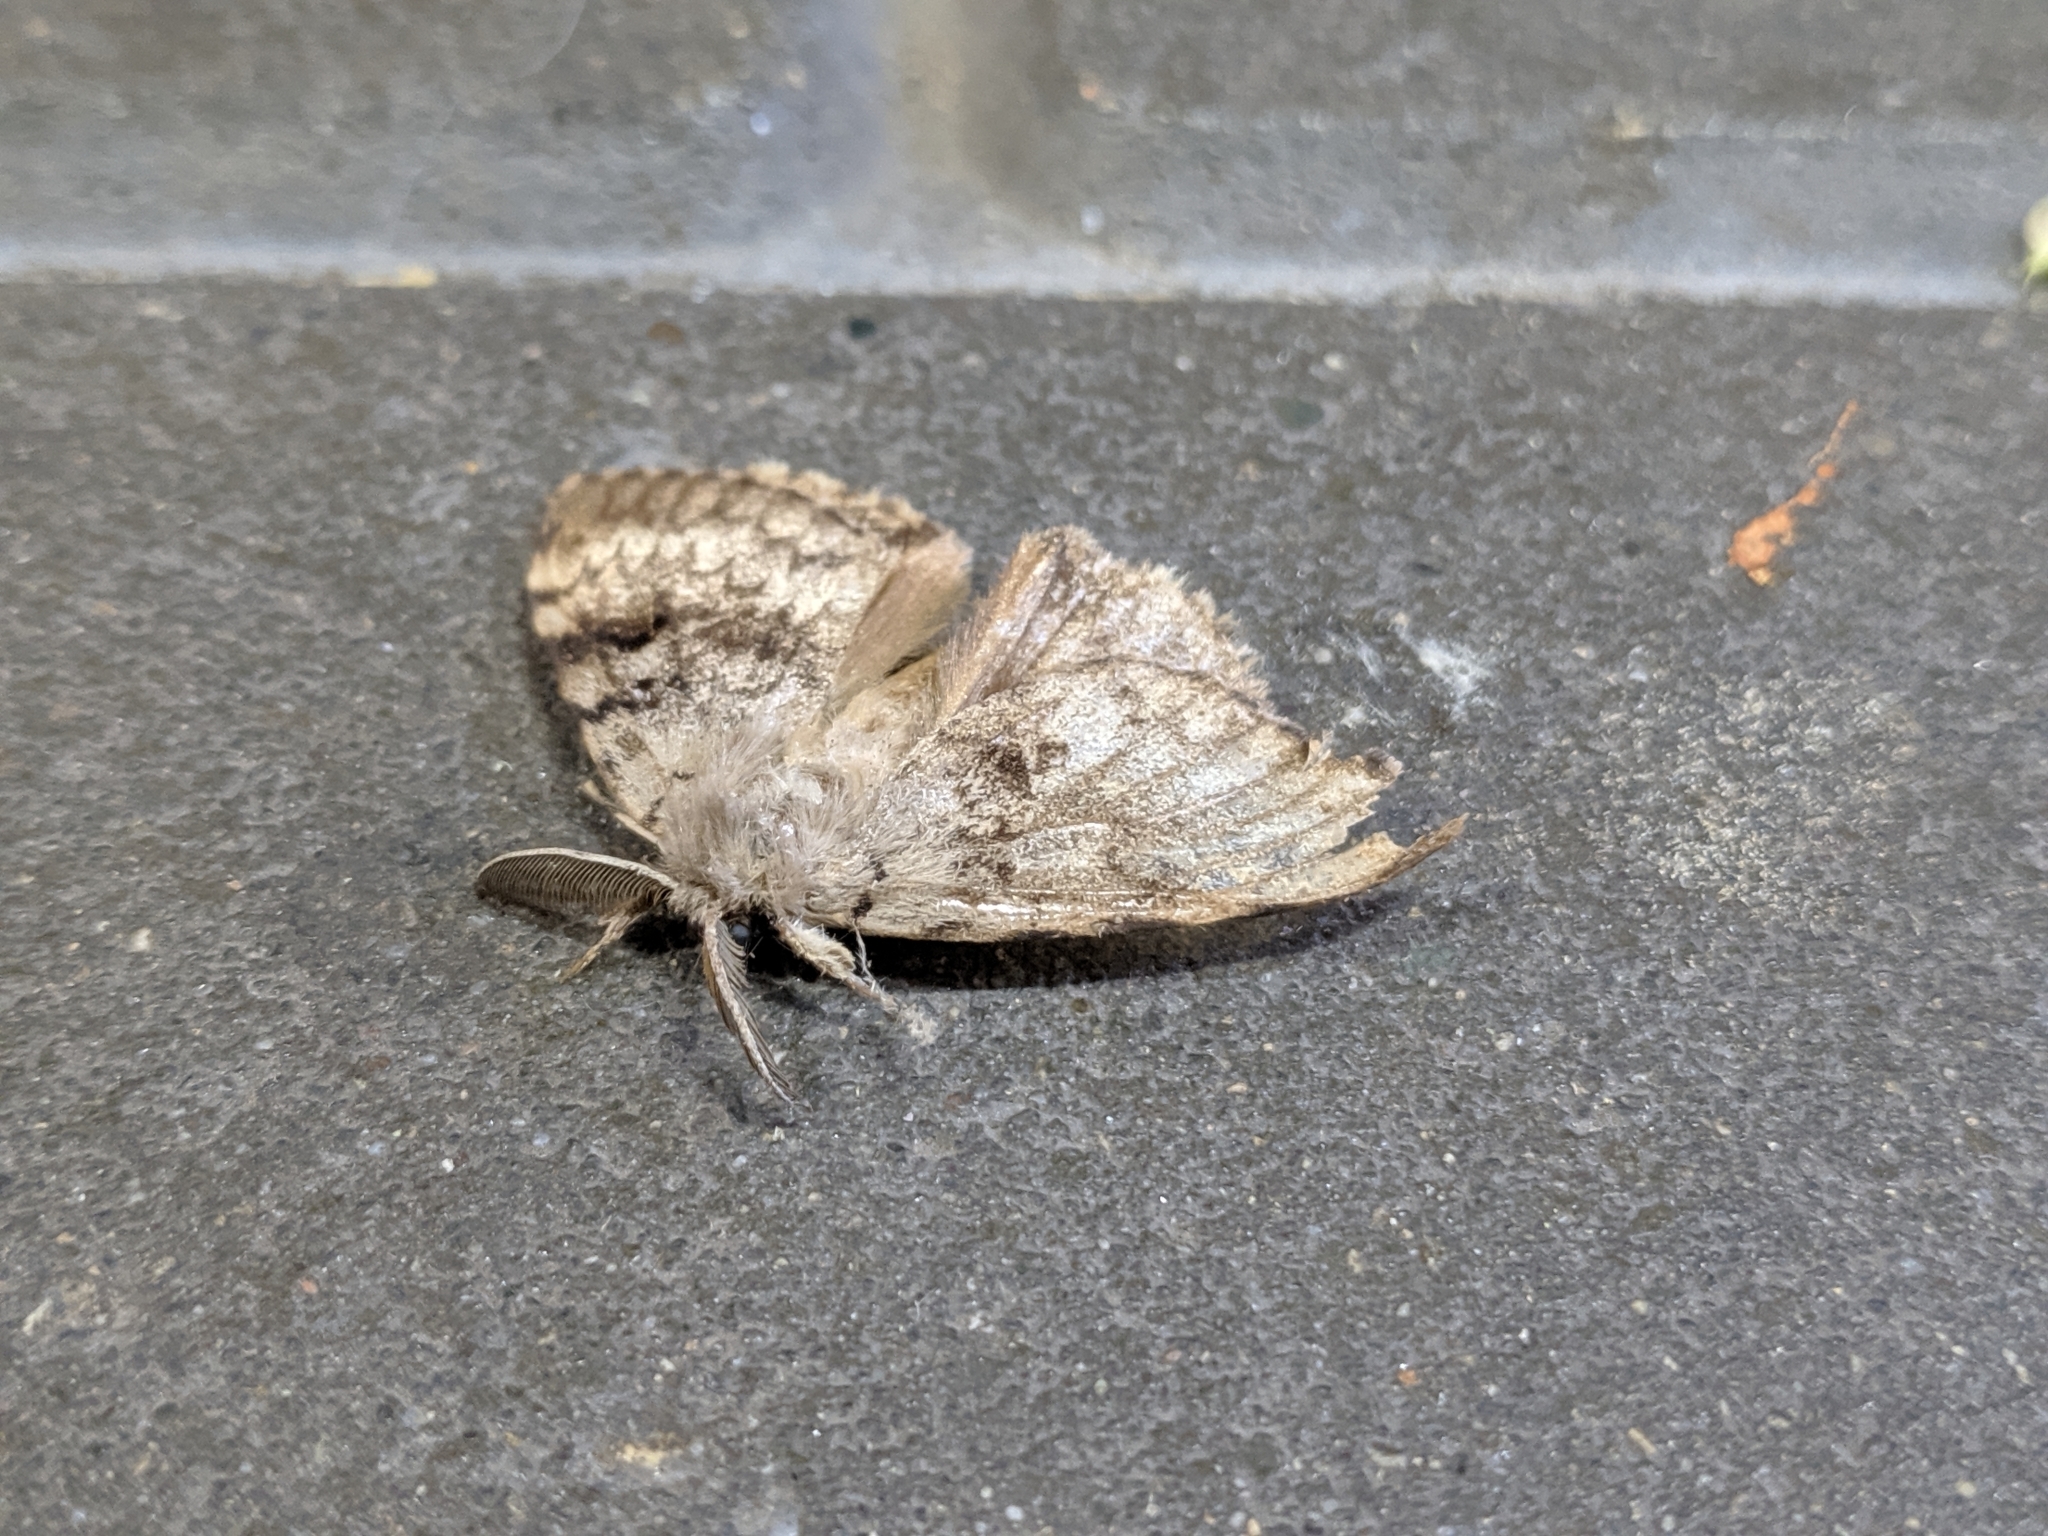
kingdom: Animalia
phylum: Arthropoda
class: Insecta
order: Lepidoptera
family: Erebidae
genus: Lymantria
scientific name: Lymantria dispar
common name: Gypsy moth
